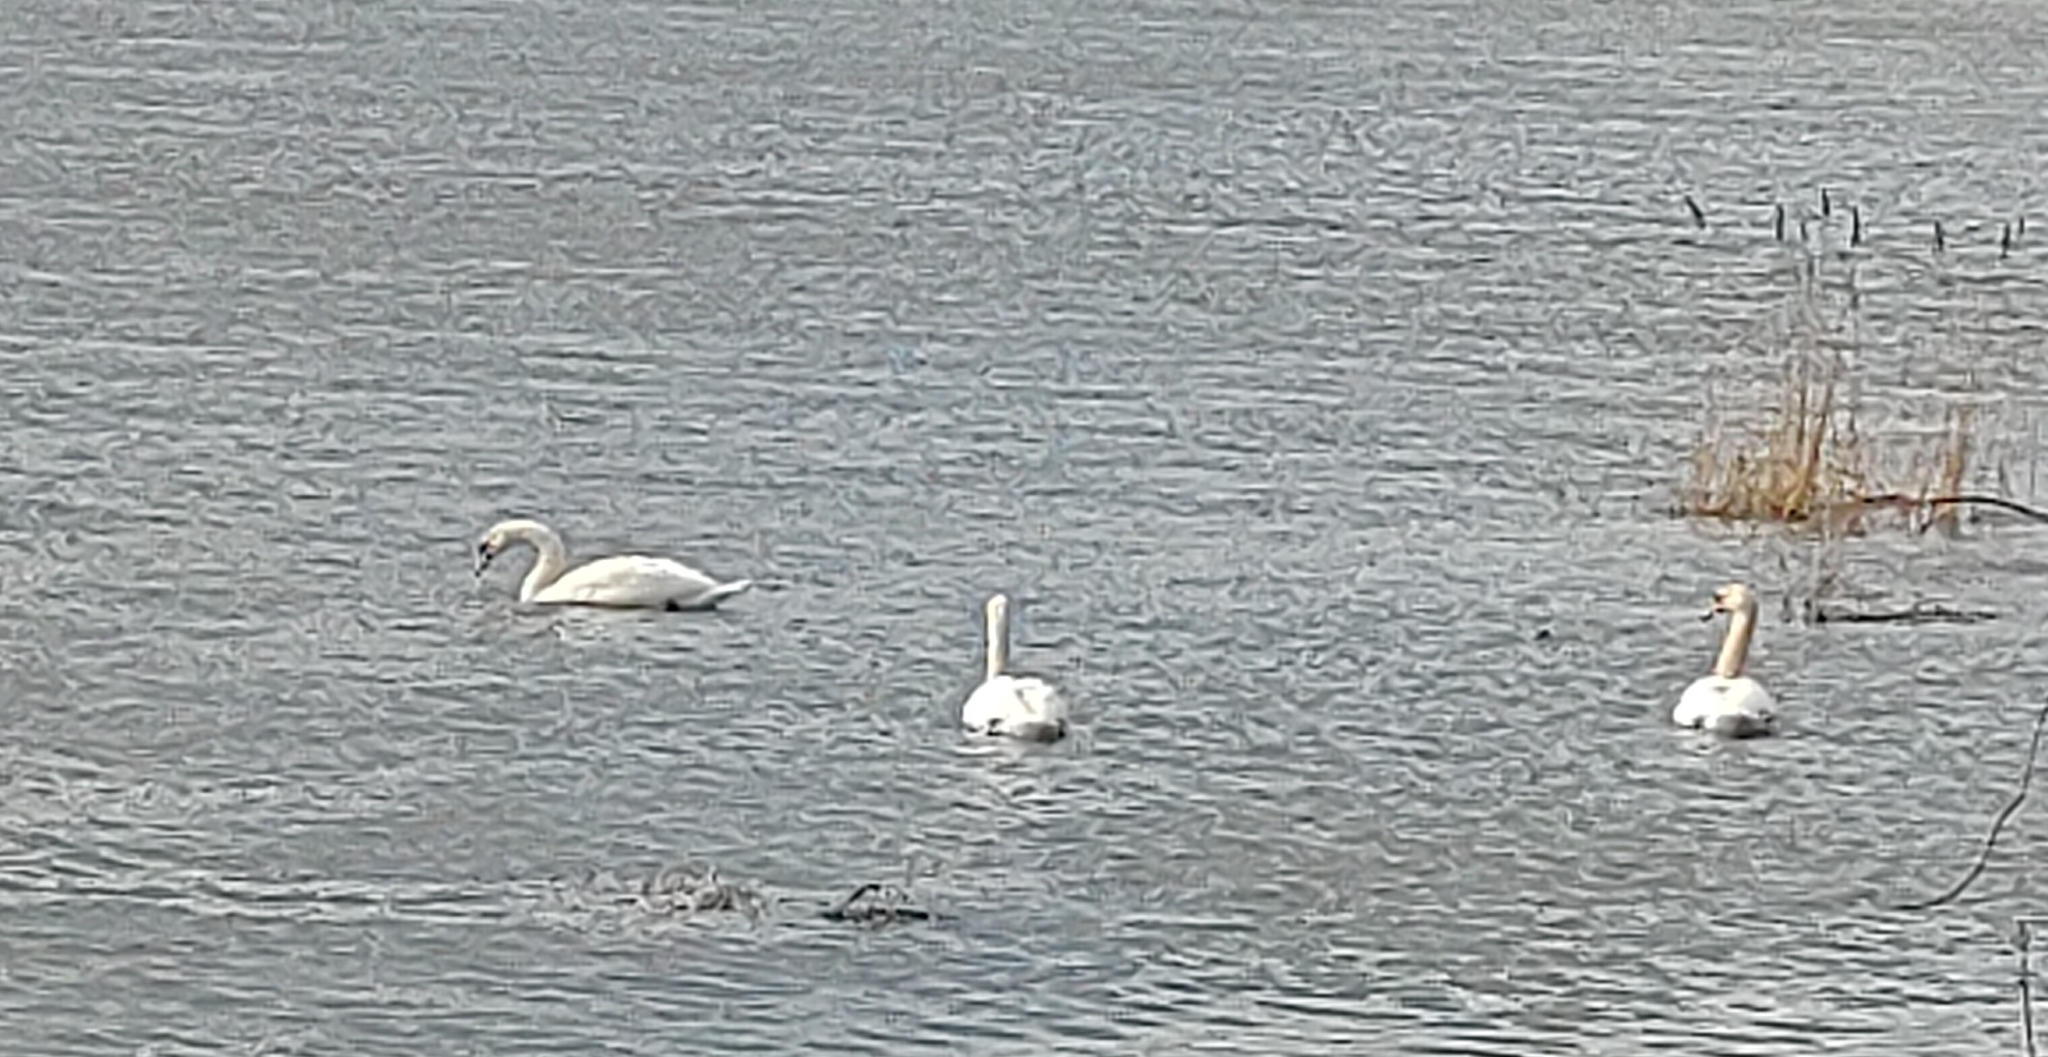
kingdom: Animalia
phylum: Chordata
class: Aves
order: Anseriformes
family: Anatidae
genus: Cygnus
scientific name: Cygnus olor
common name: Mute swan
